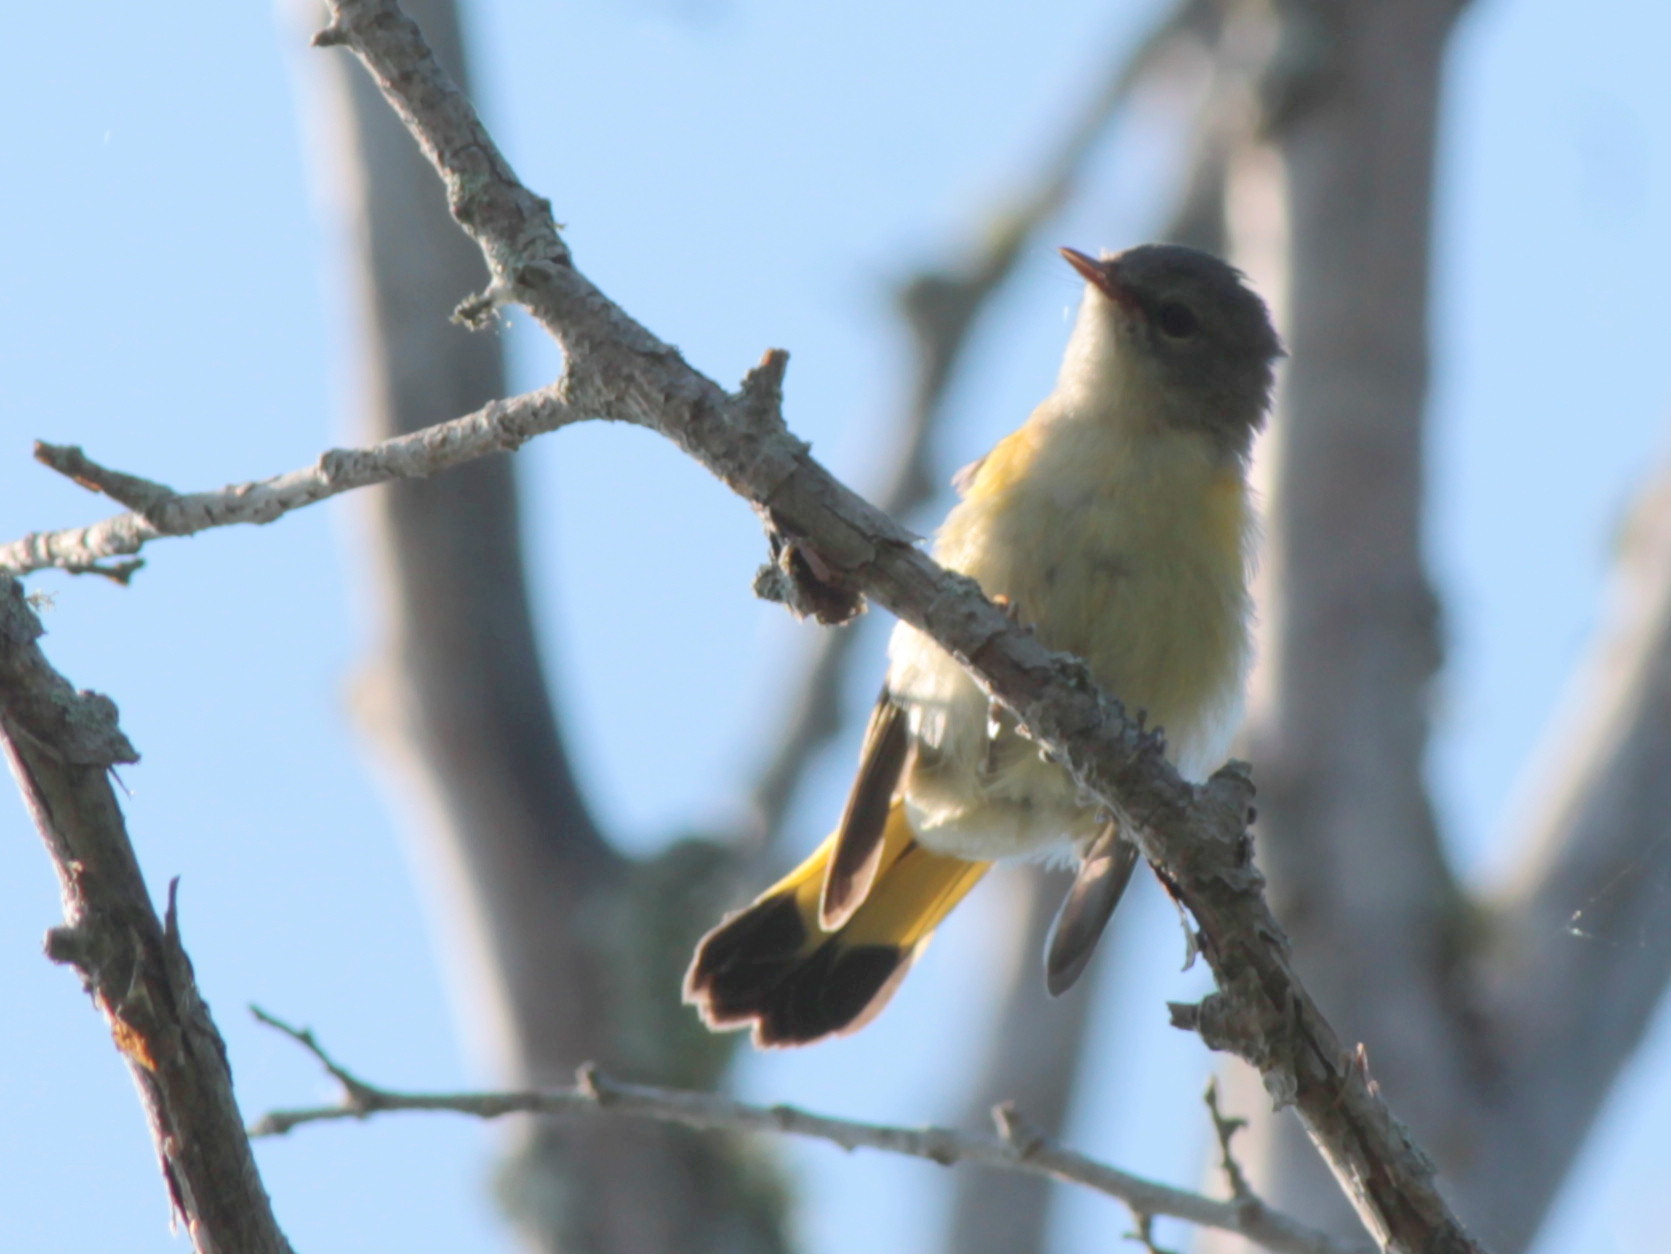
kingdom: Animalia
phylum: Chordata
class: Aves
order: Passeriformes
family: Parulidae
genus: Setophaga
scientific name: Setophaga ruticilla
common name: American redstart
